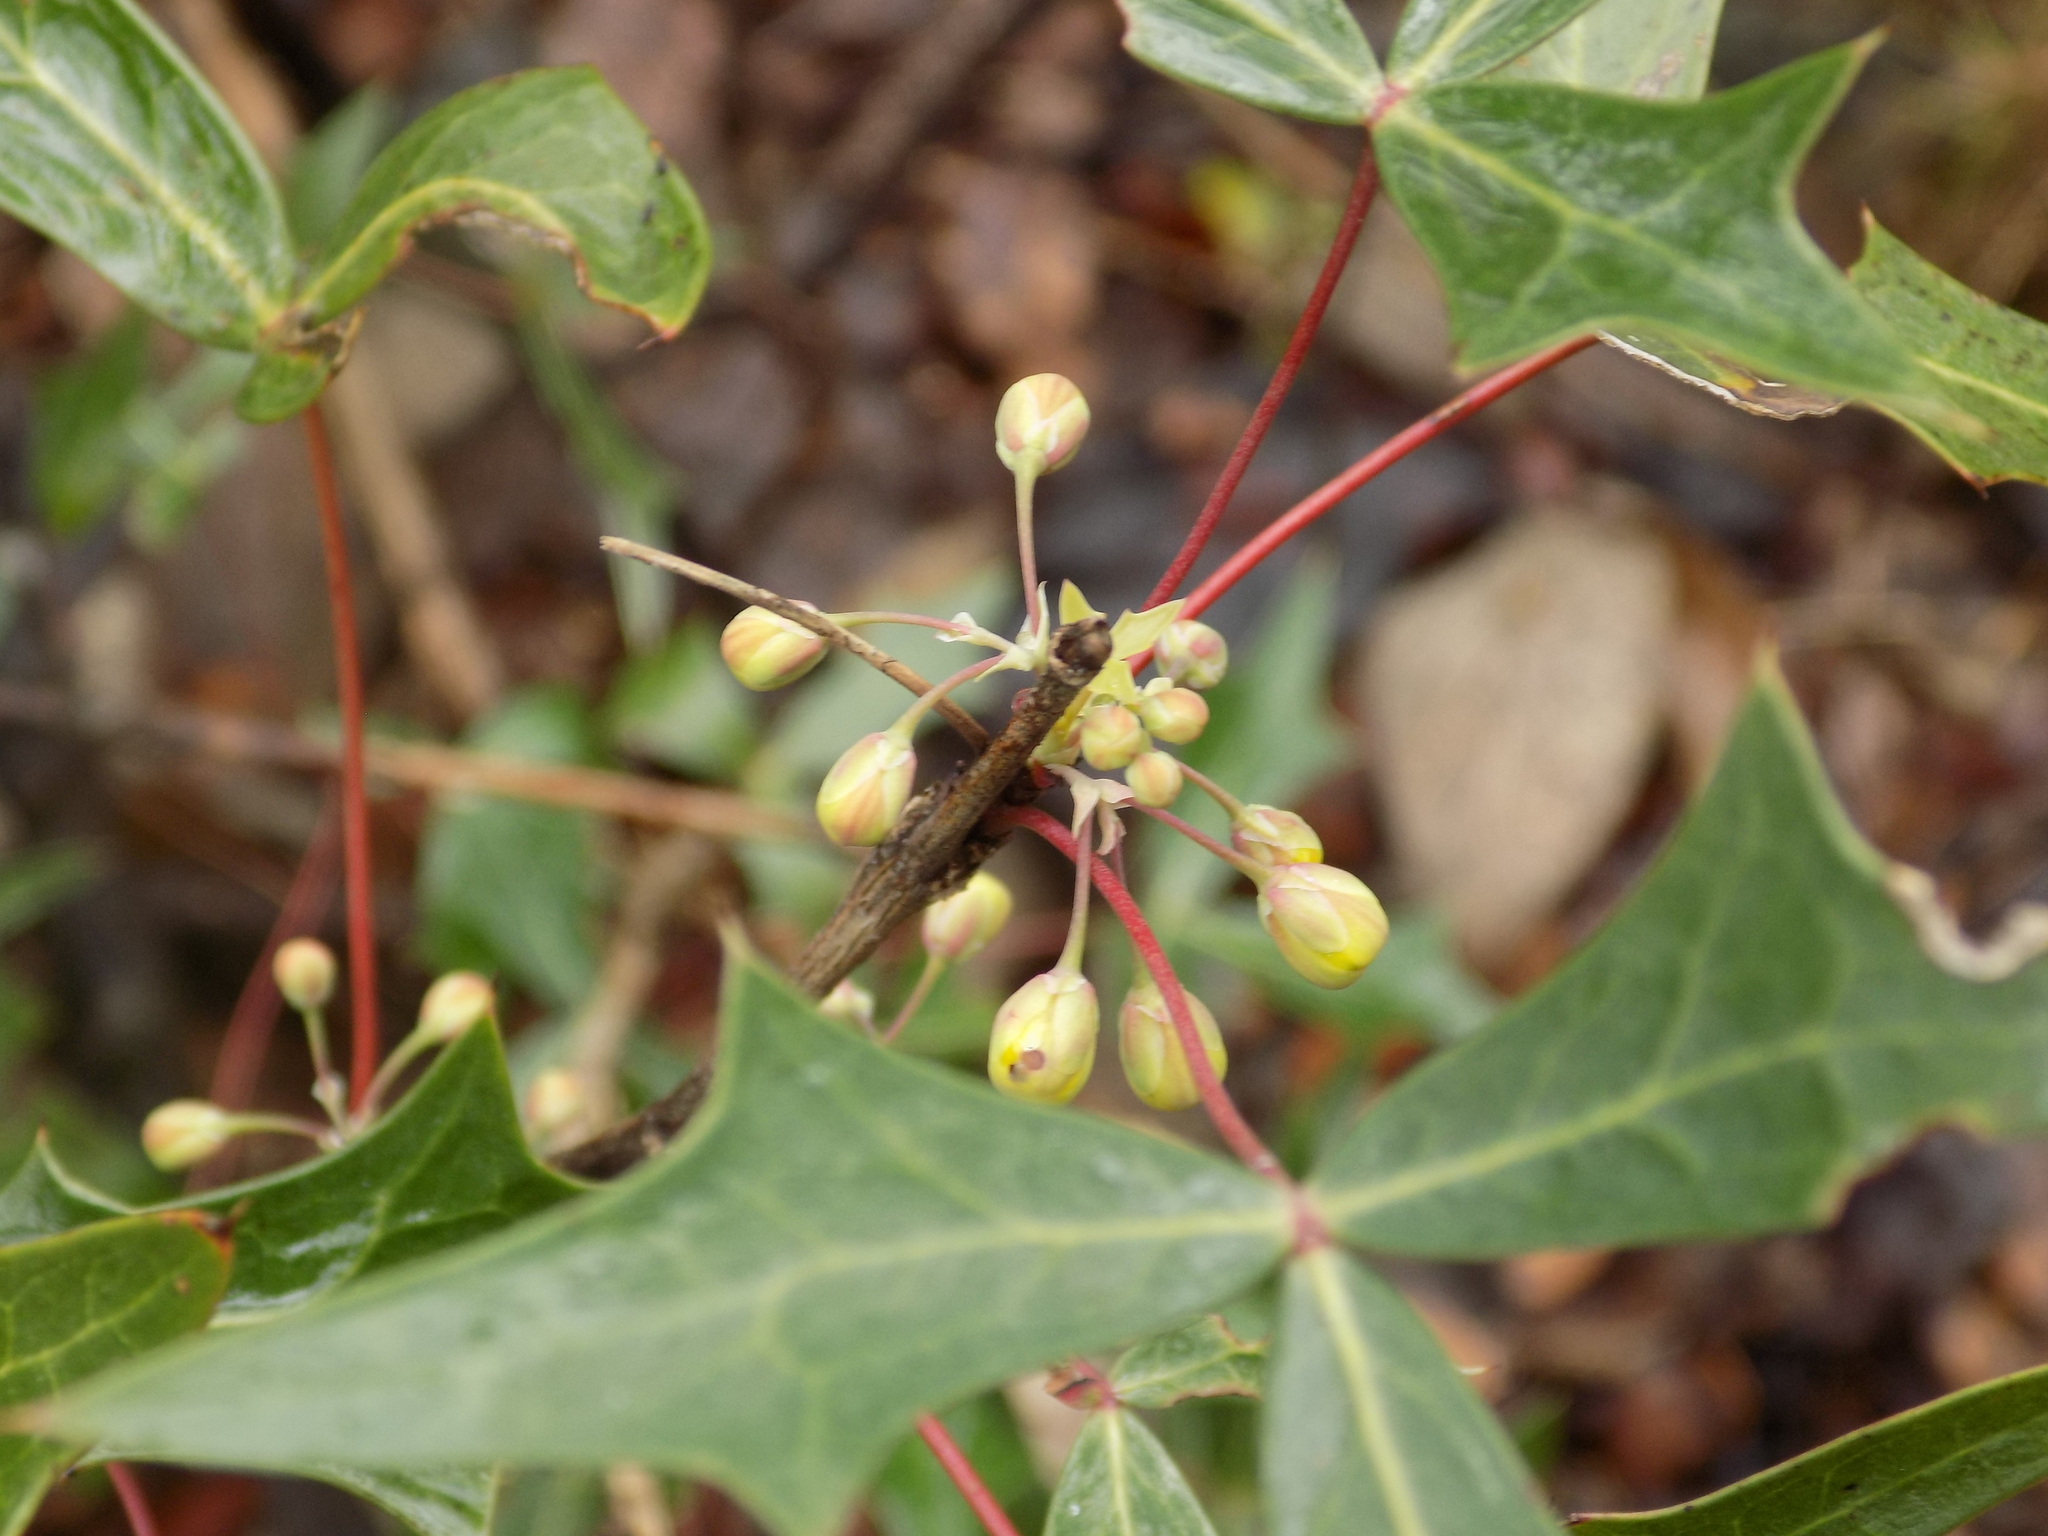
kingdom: Plantae
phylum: Tracheophyta
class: Magnoliopsida
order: Ranunculales
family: Berberidaceae
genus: Alloberberis
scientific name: Alloberberis trifoliolata
